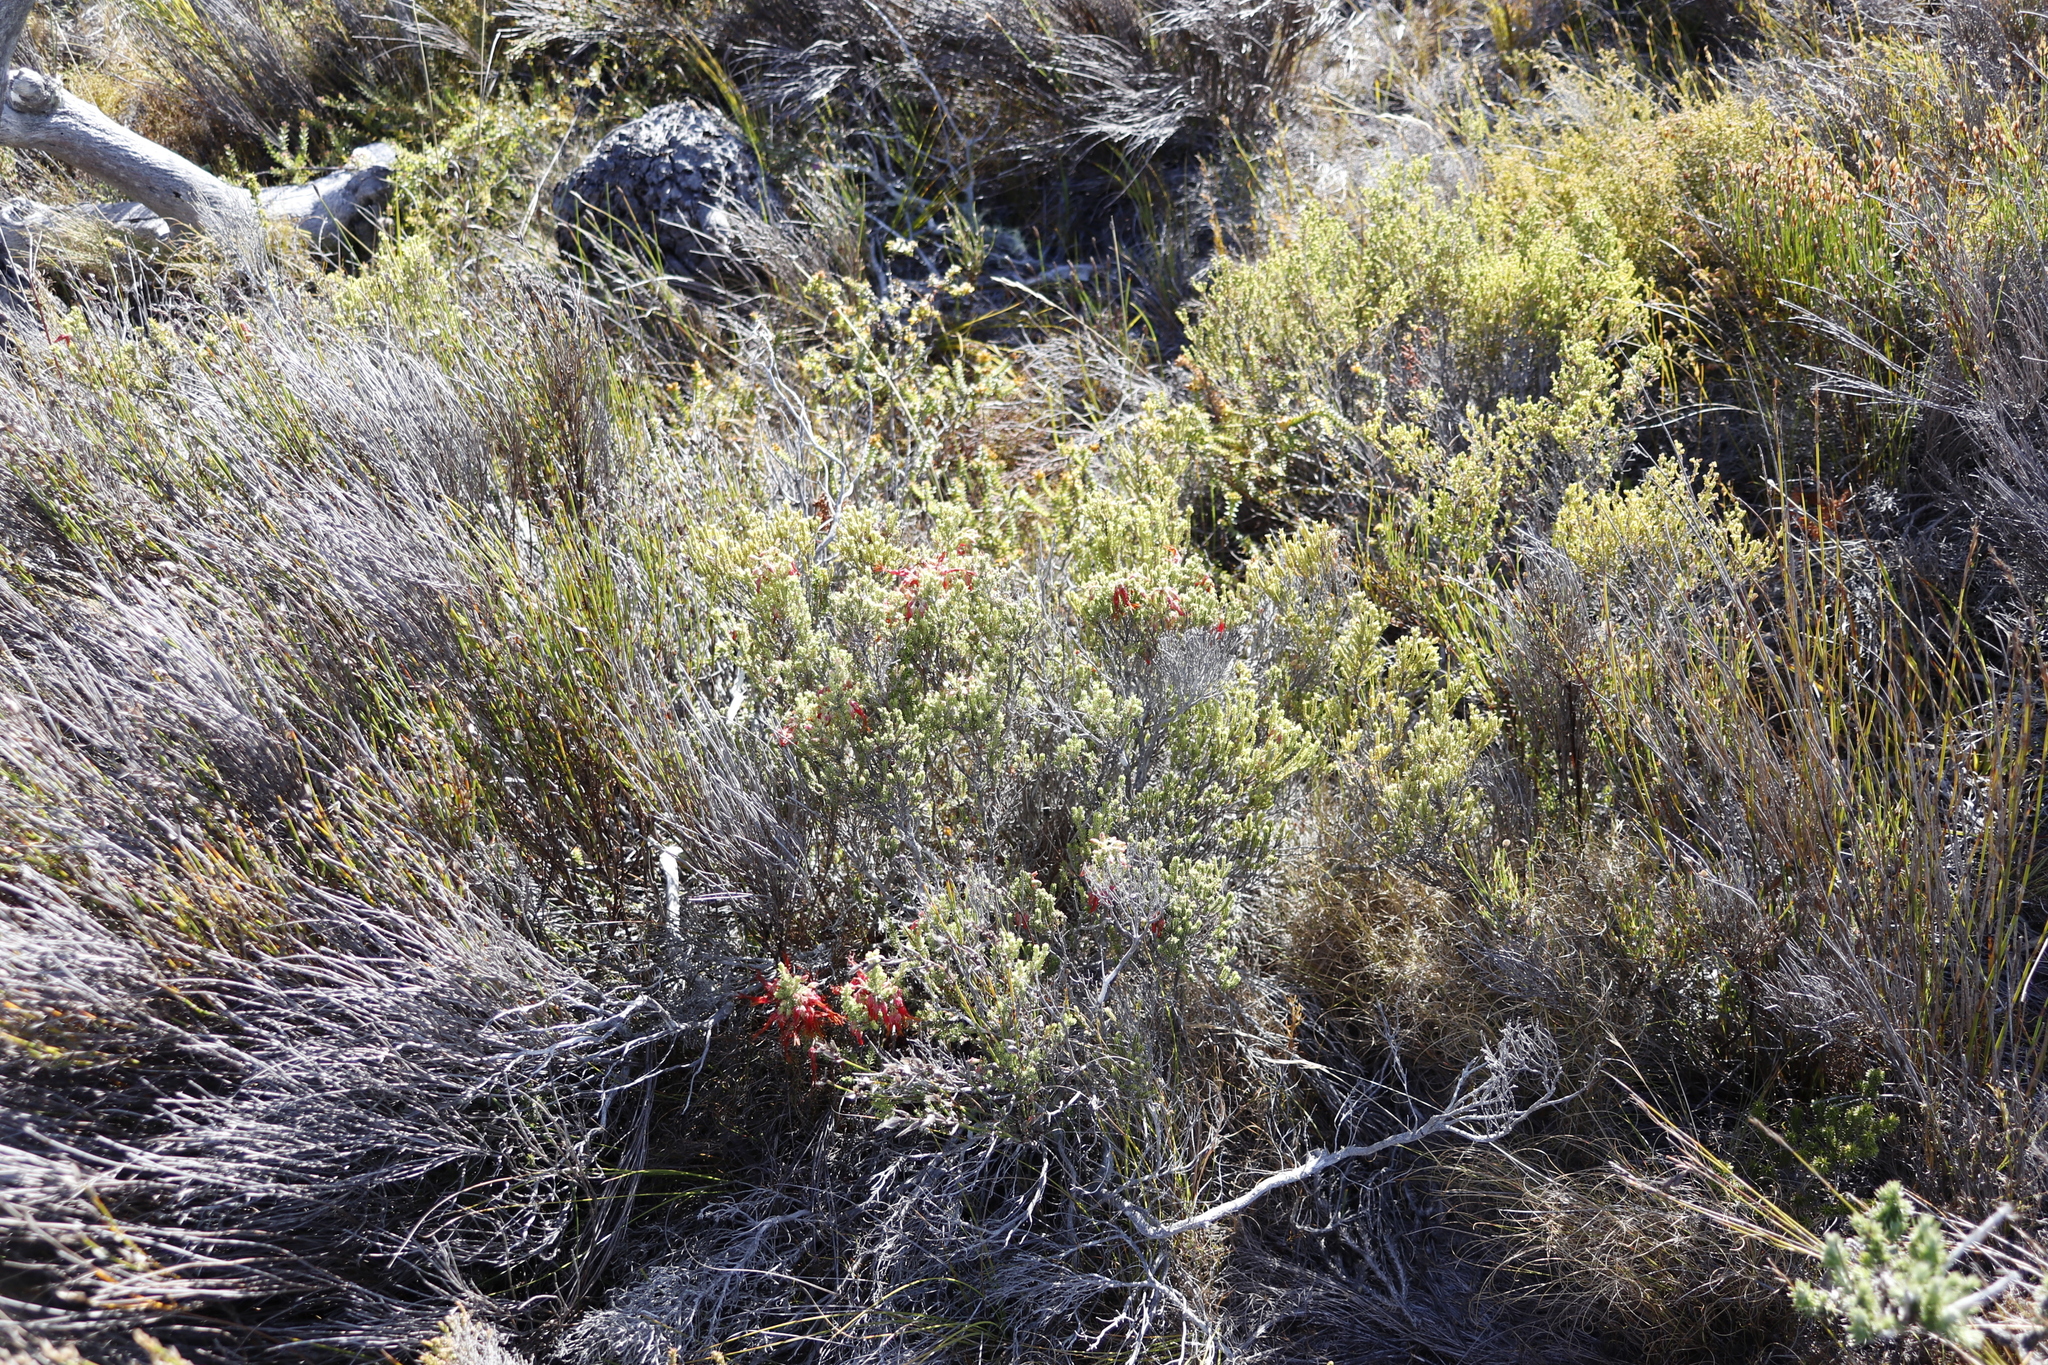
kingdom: Plantae
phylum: Tracheophyta
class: Magnoliopsida
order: Ericales
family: Ericaceae
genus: Erica
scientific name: Erica monadelphia
